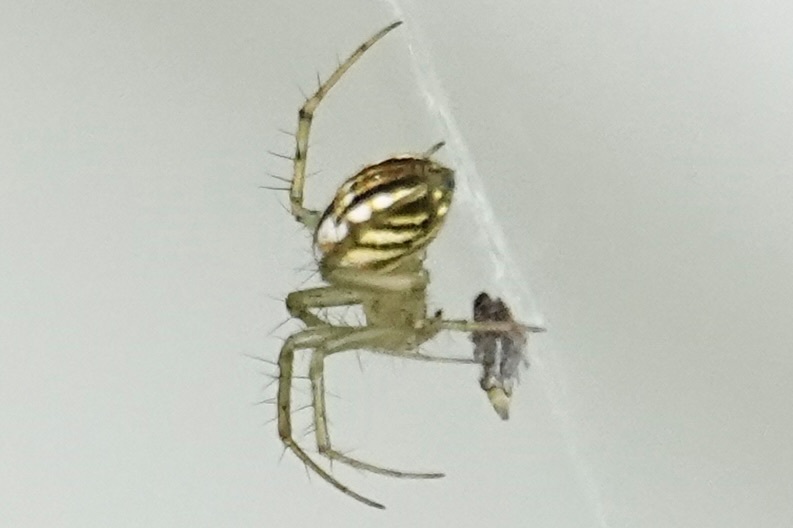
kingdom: Animalia
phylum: Arthropoda
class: Arachnida
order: Araneae
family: Araneidae
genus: Mangora
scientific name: Mangora gibberosa
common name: Lined orbweaver
